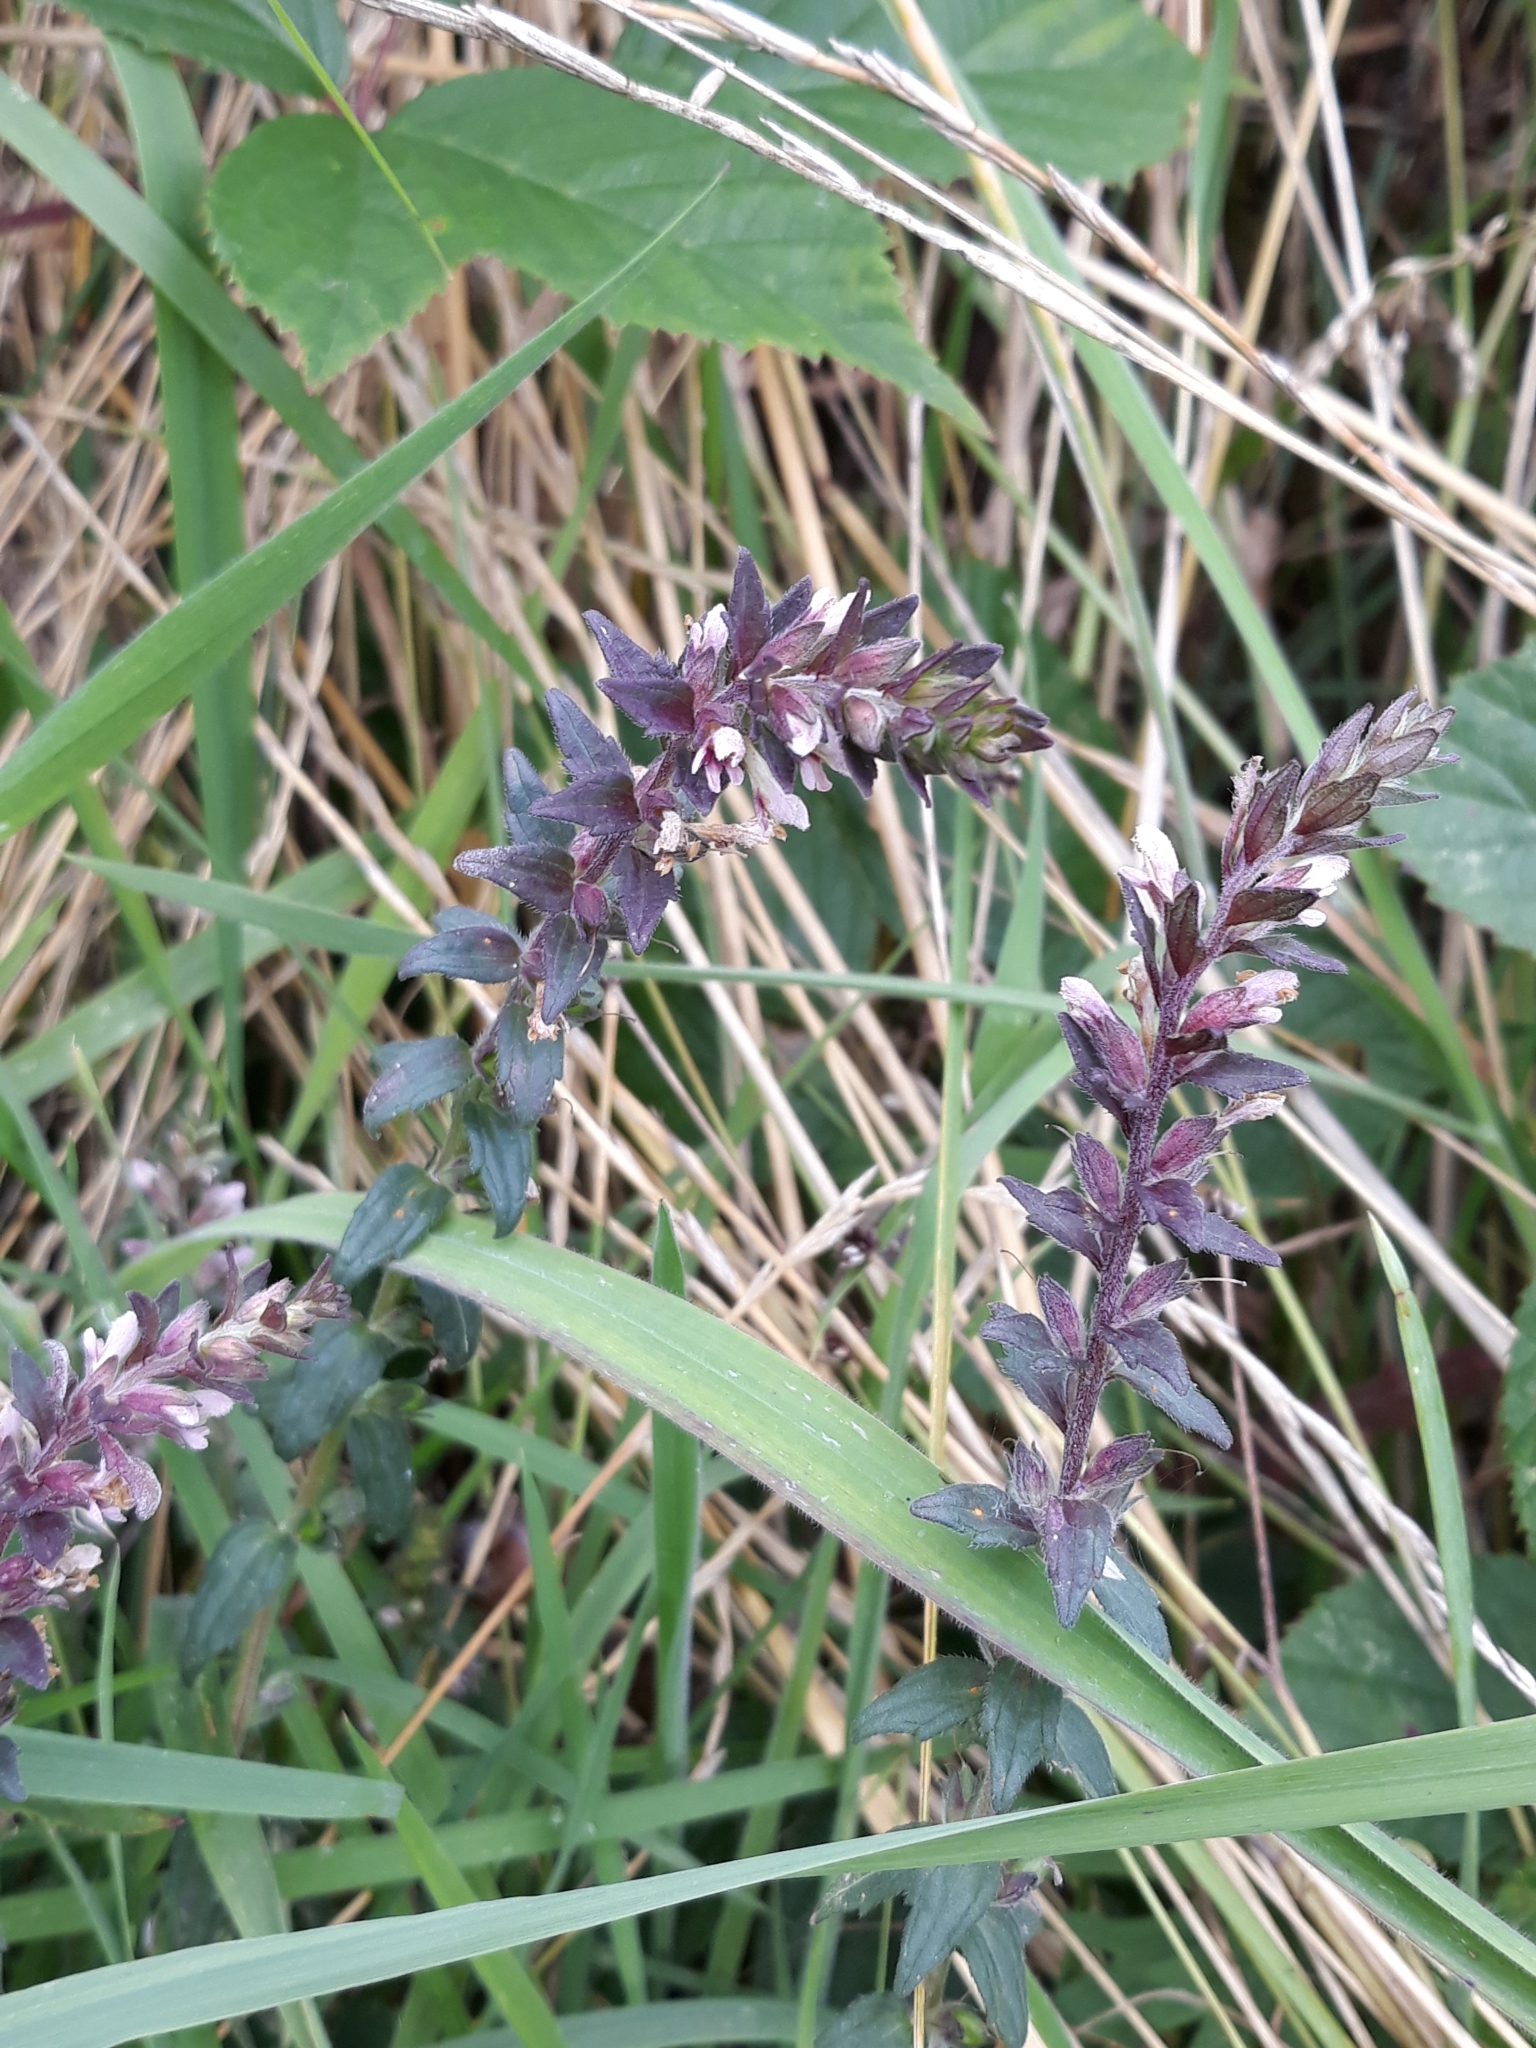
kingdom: Plantae
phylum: Tracheophyta
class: Magnoliopsida
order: Lamiales
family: Orobanchaceae
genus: Odontites
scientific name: Odontites vernus
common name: Red bartsia
